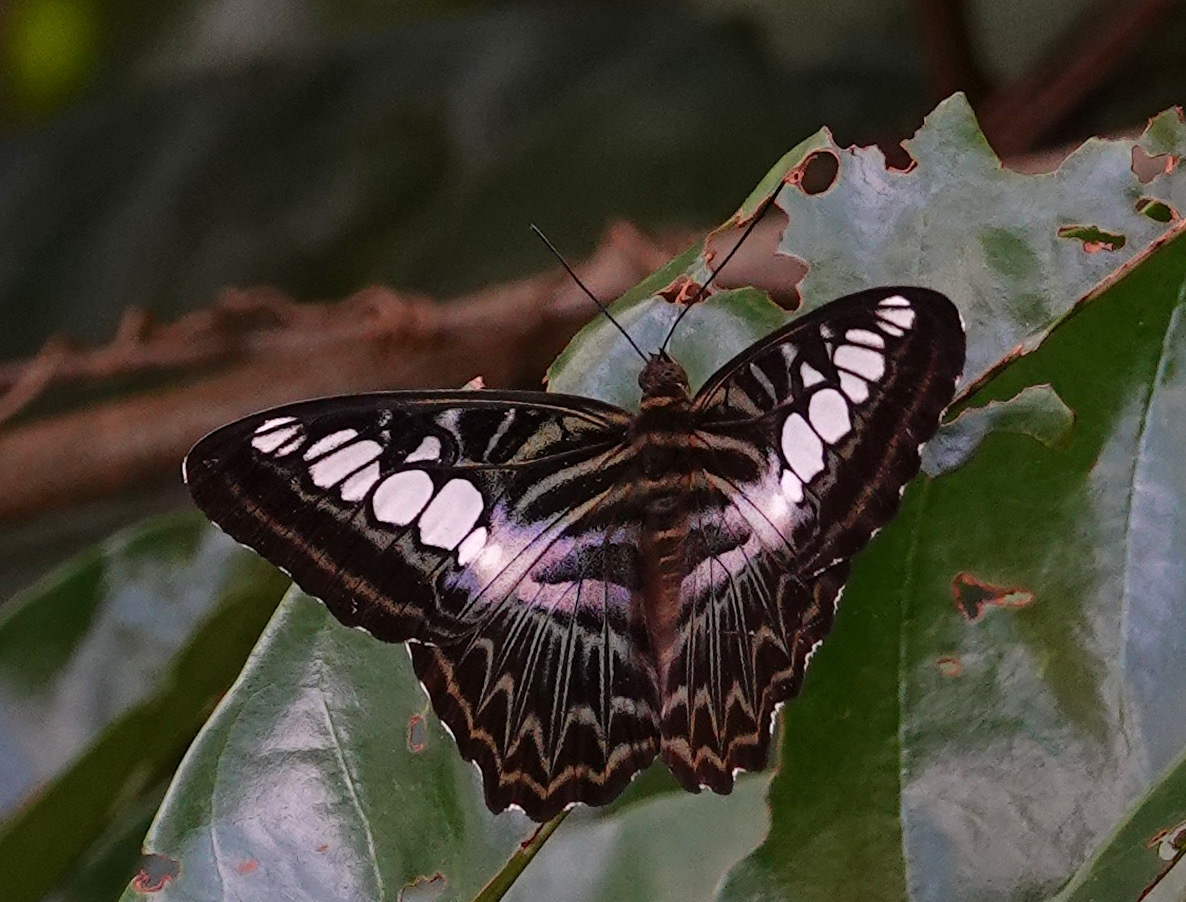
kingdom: Animalia
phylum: Arthropoda
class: Insecta
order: Lepidoptera
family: Nymphalidae
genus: Kallima
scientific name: Kallima sylvia
